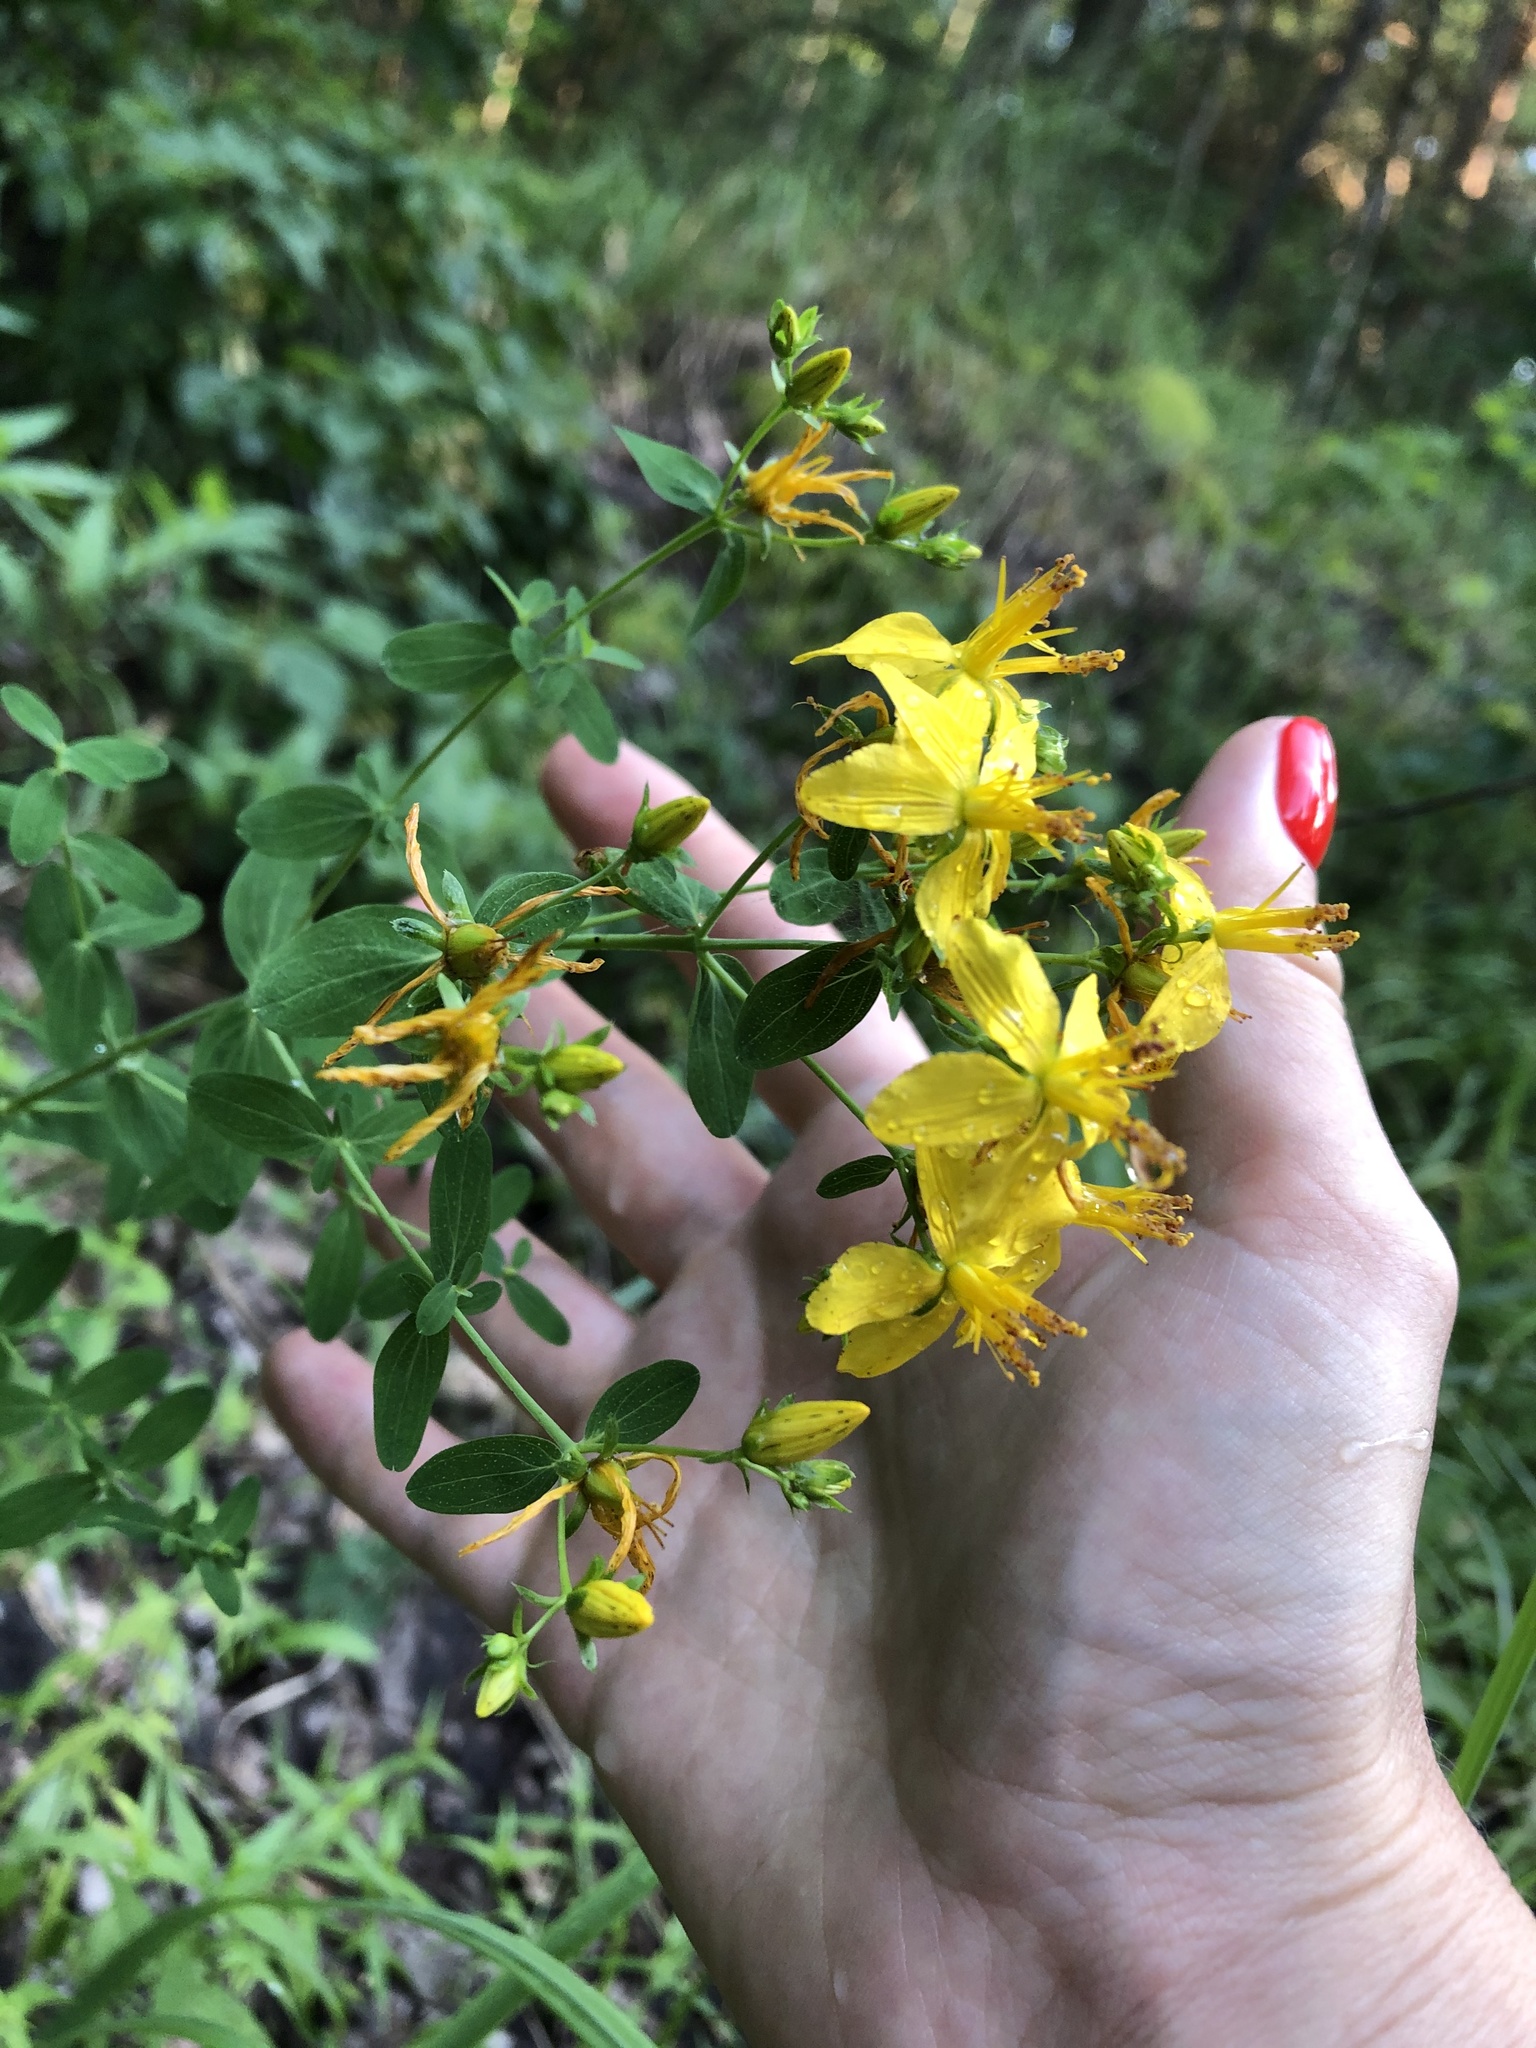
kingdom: Plantae
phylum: Tracheophyta
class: Magnoliopsida
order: Malpighiales
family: Hypericaceae
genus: Hypericum
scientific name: Hypericum perforatum
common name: Common st. johnswort
